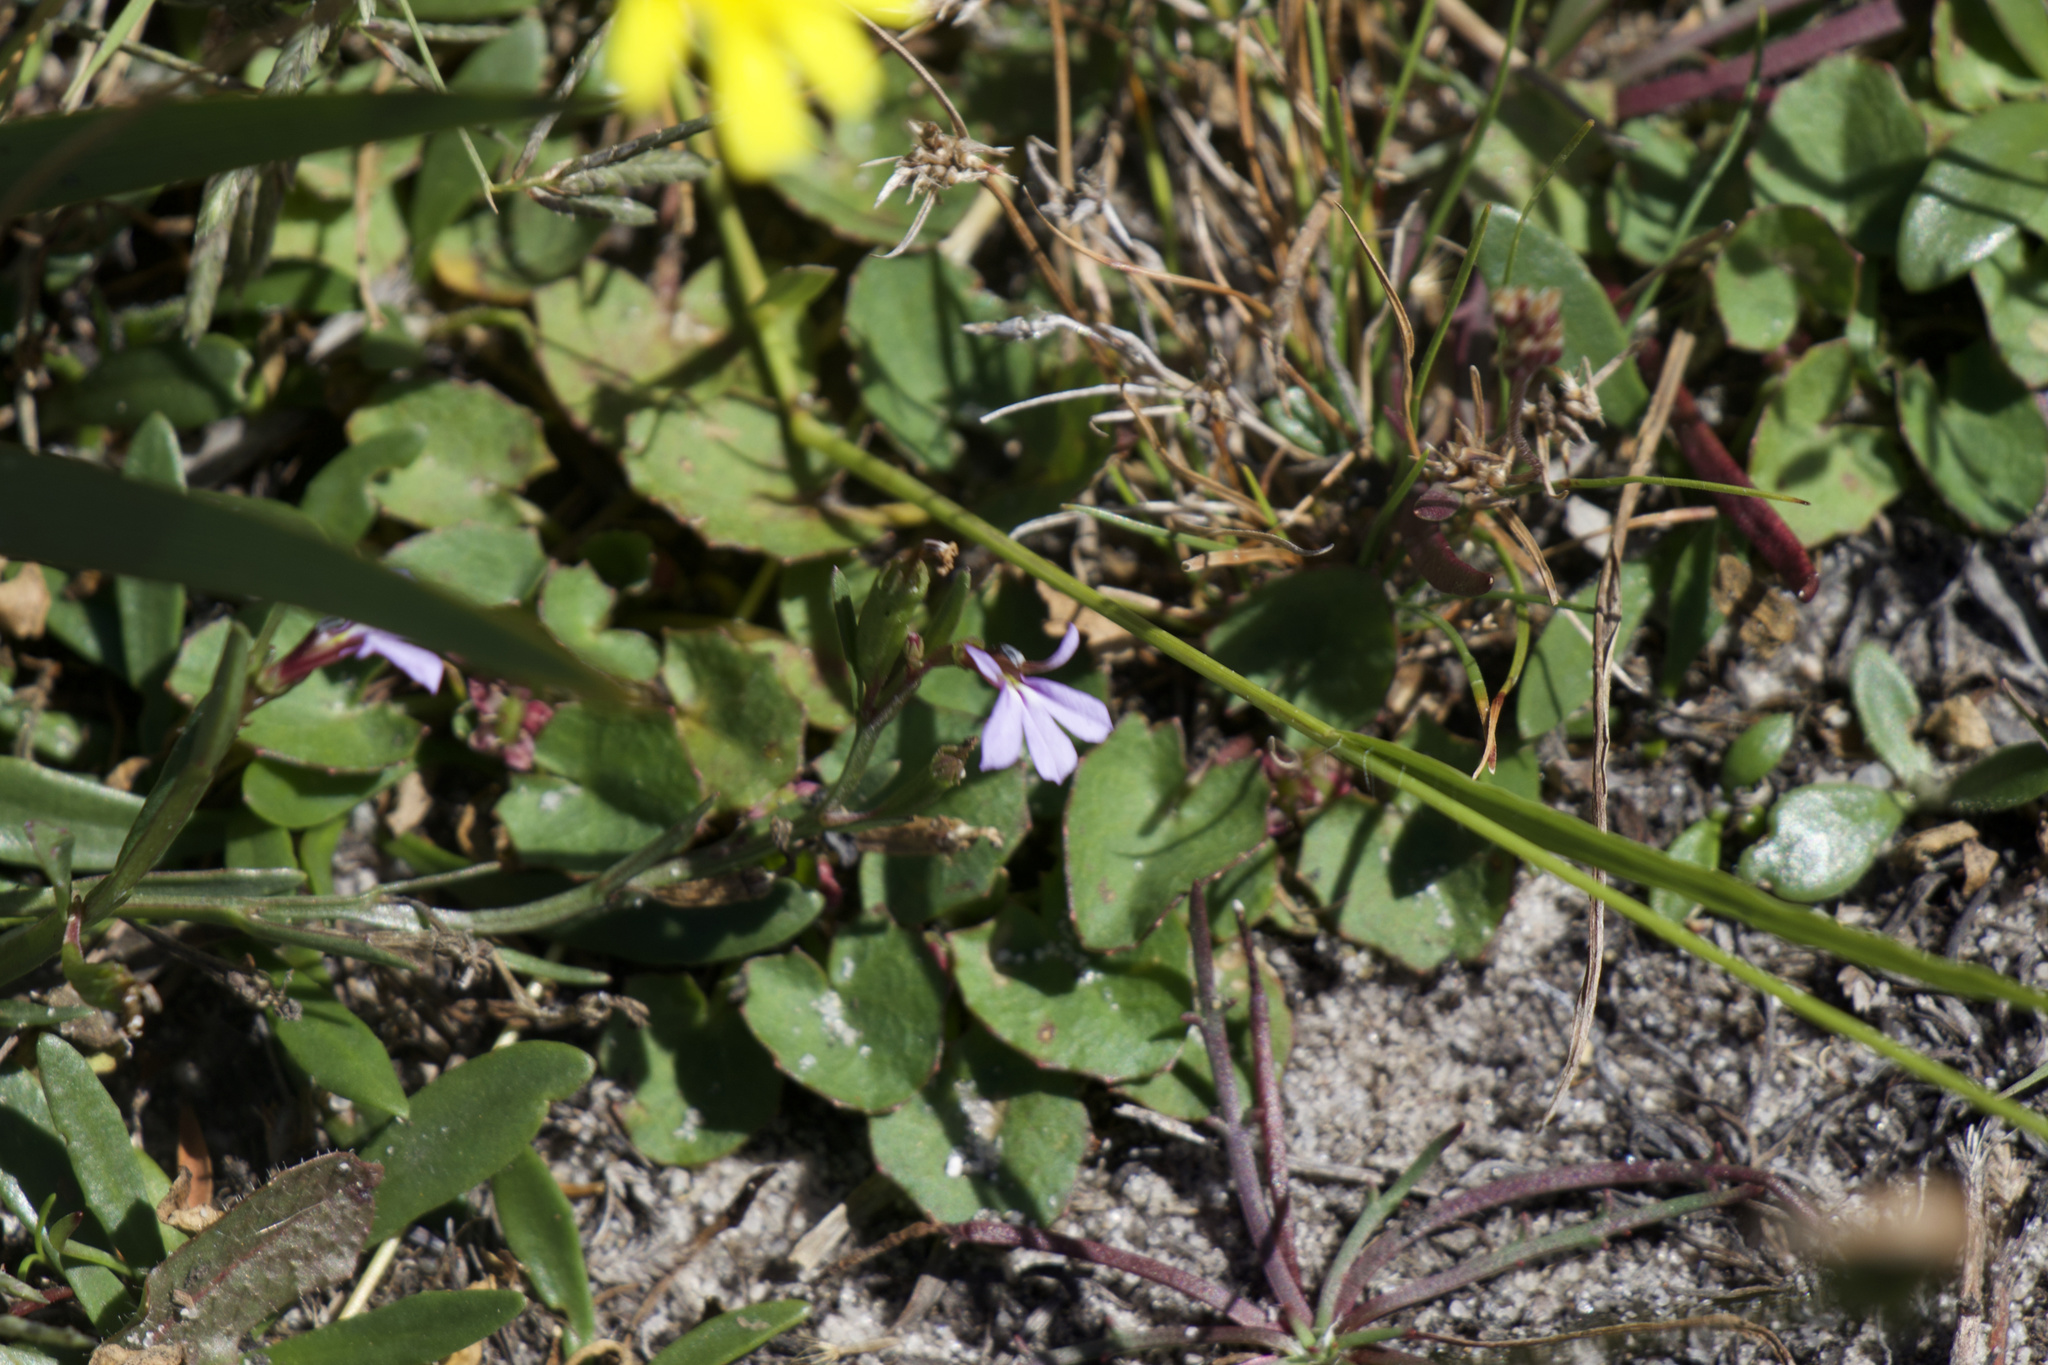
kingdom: Plantae
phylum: Tracheophyta
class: Magnoliopsida
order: Asterales
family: Campanulaceae
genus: Lobelia
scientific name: Lobelia anceps
